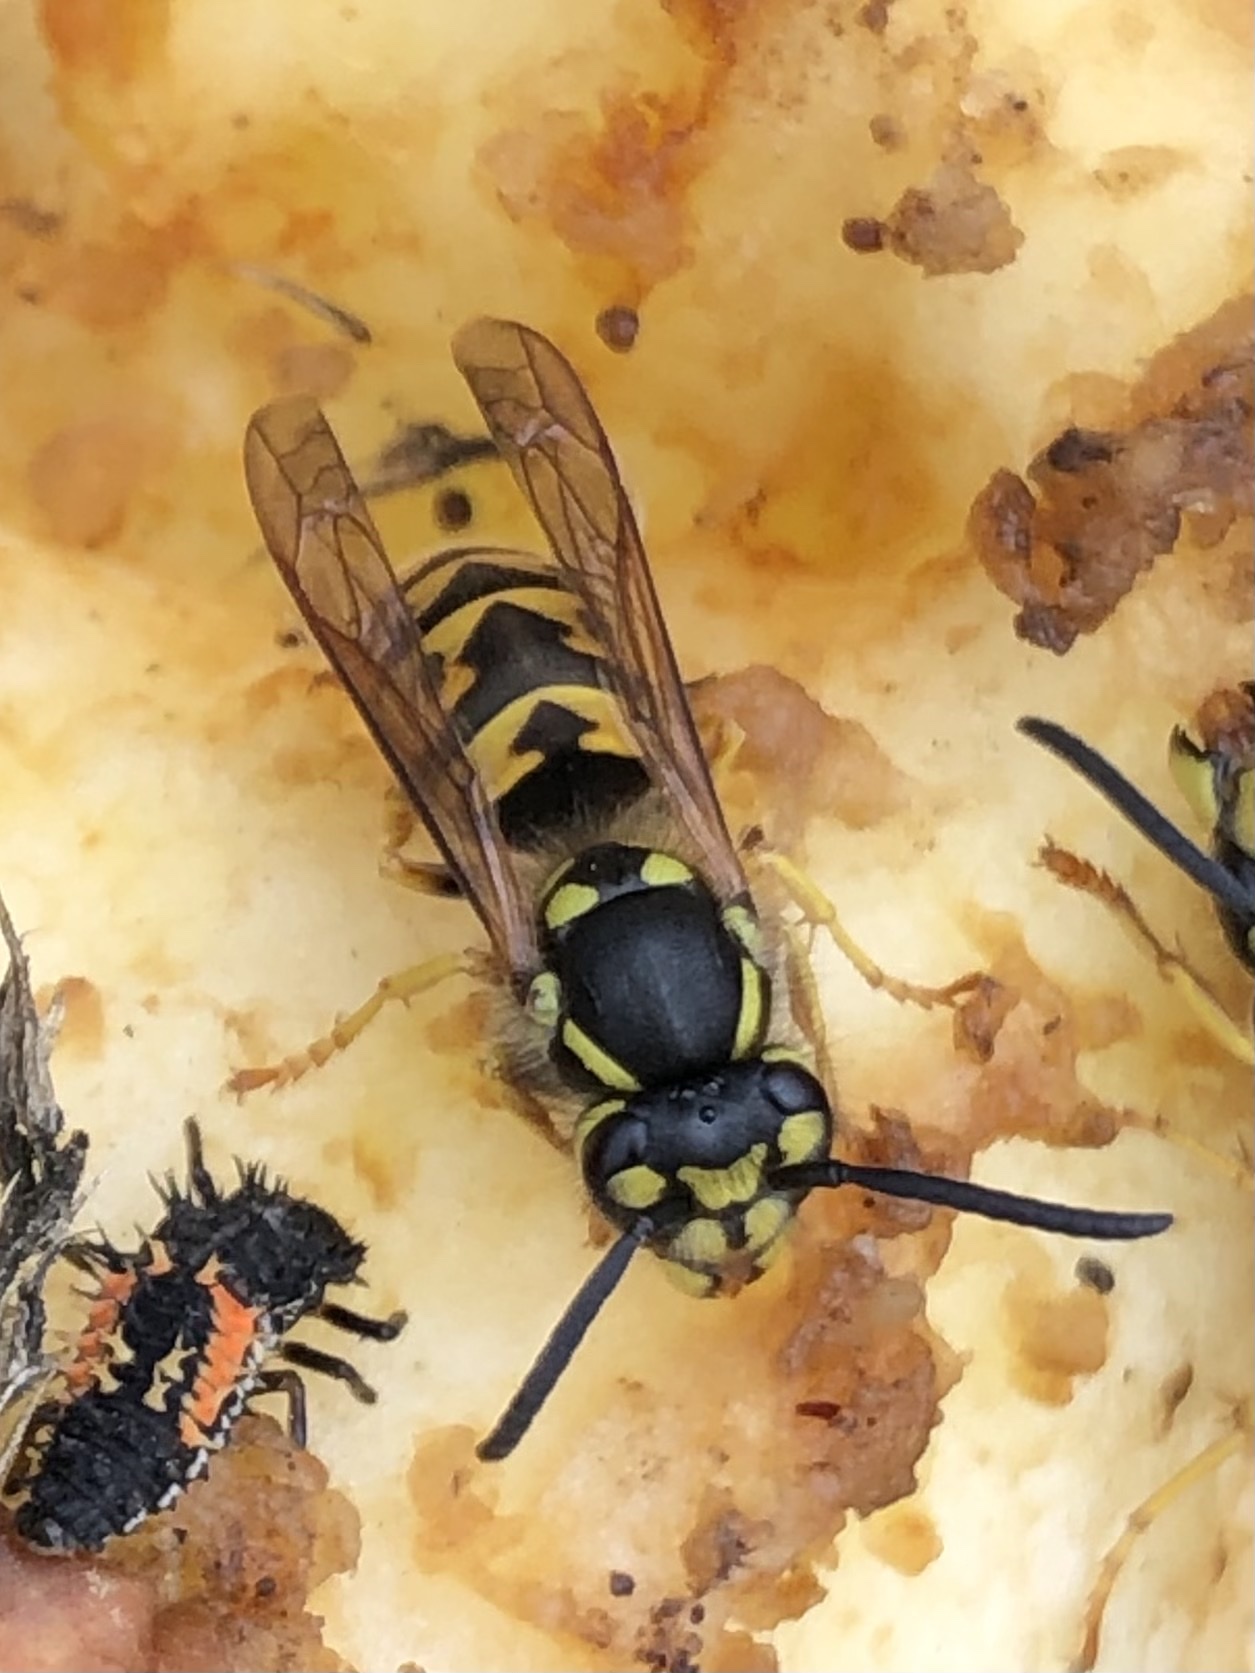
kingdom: Animalia
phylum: Arthropoda
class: Insecta
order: Hymenoptera
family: Vespidae
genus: Vespula
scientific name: Vespula germanica
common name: German wasp
